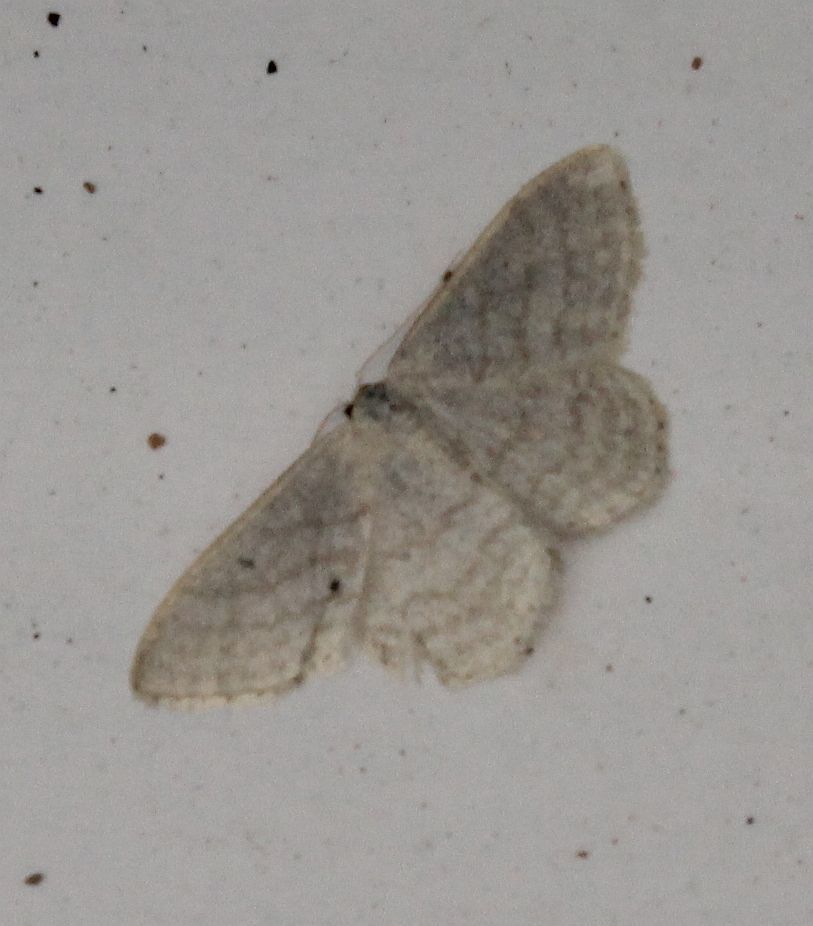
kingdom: Animalia
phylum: Arthropoda
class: Insecta
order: Lepidoptera
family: Geometridae
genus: Idaea
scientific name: Idaea subsericeata
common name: Satin wave
